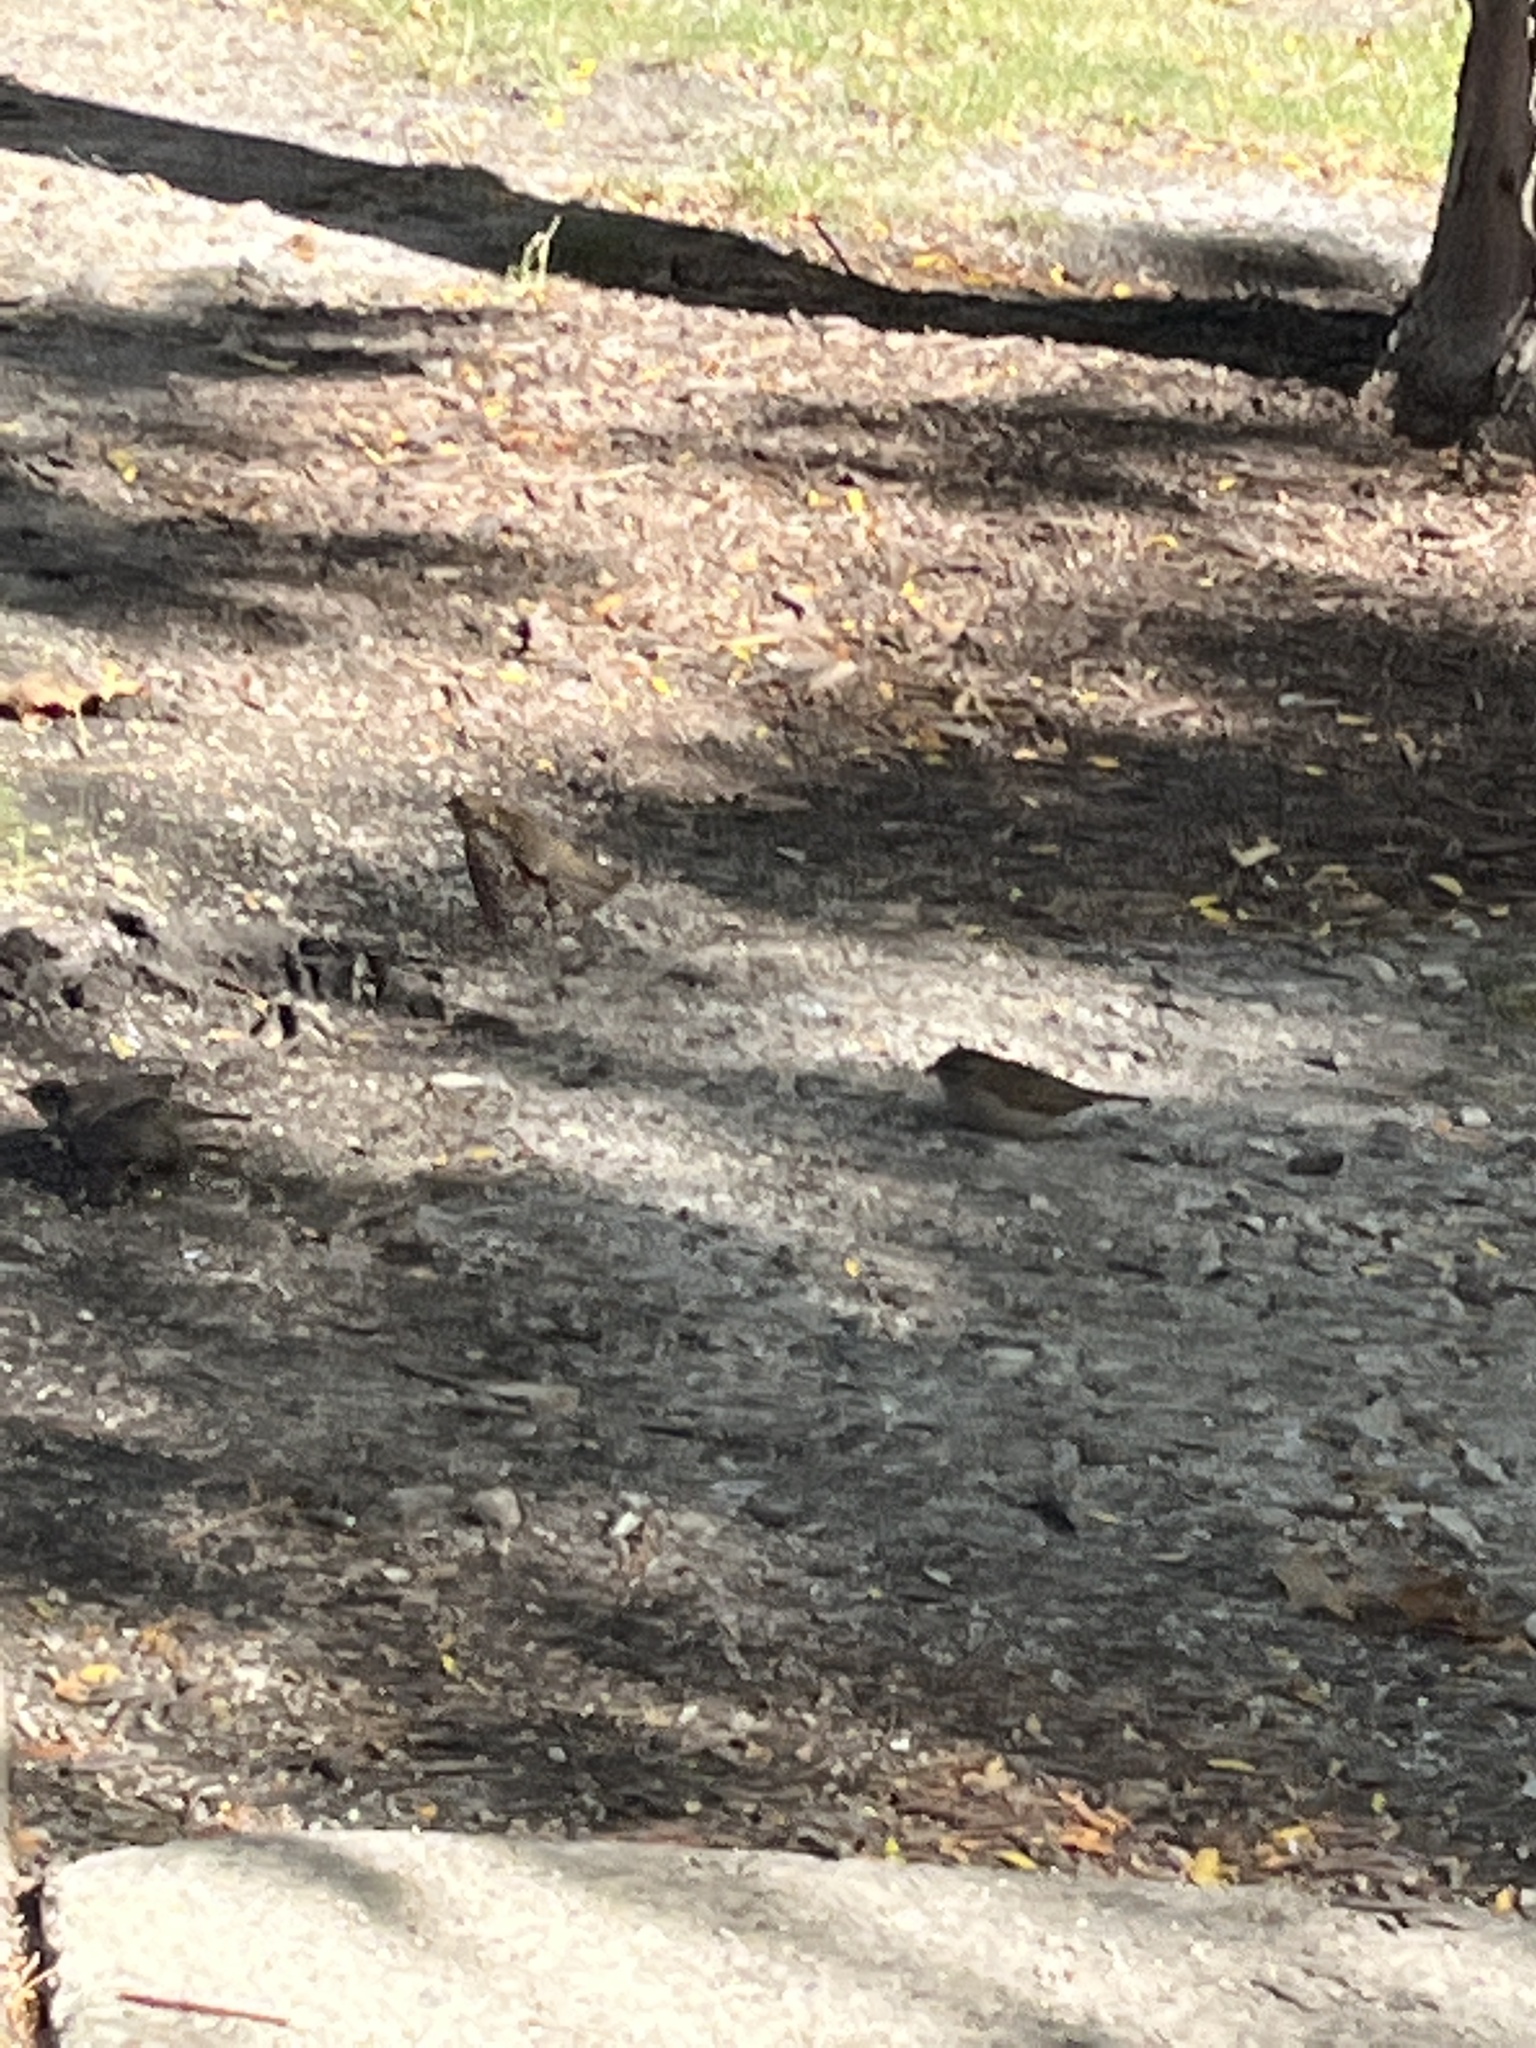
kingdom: Animalia
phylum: Chordata
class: Aves
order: Passeriformes
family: Passeridae
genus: Passer
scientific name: Passer domesticus
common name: House sparrow
